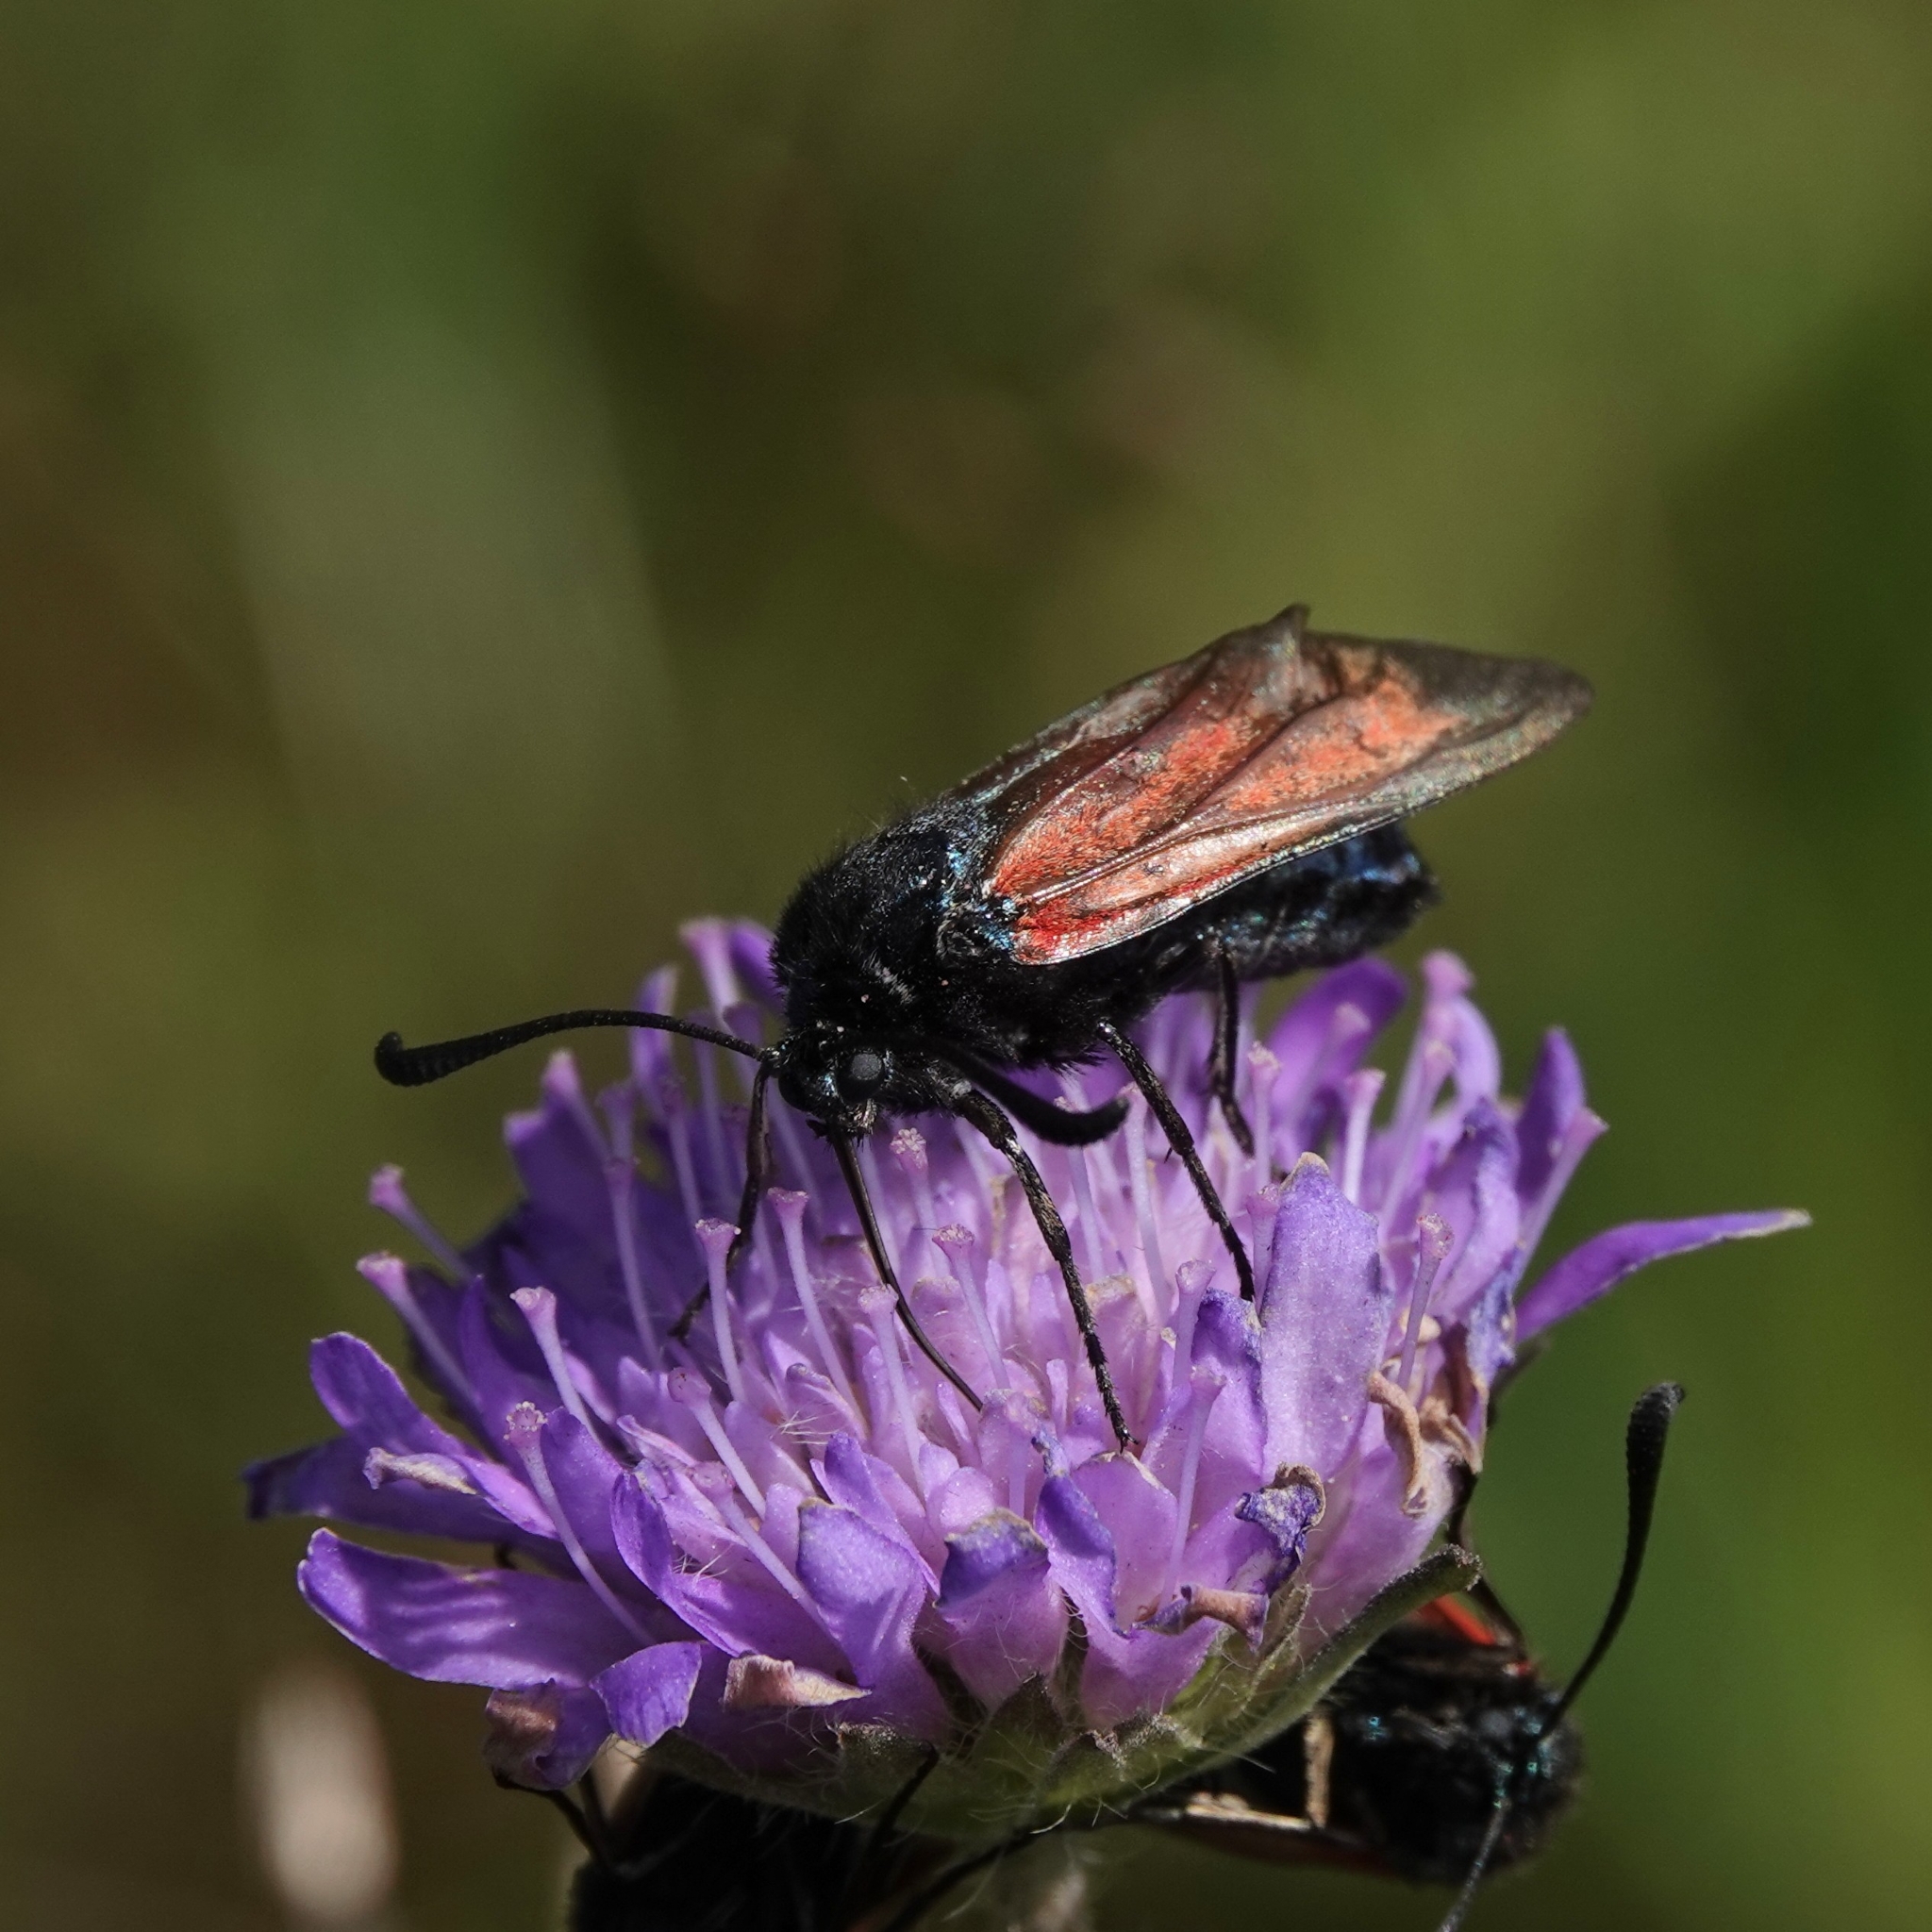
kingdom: Animalia
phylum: Arthropoda
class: Insecta
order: Lepidoptera
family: Zygaenidae
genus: Zygaena
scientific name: Zygaena minos
